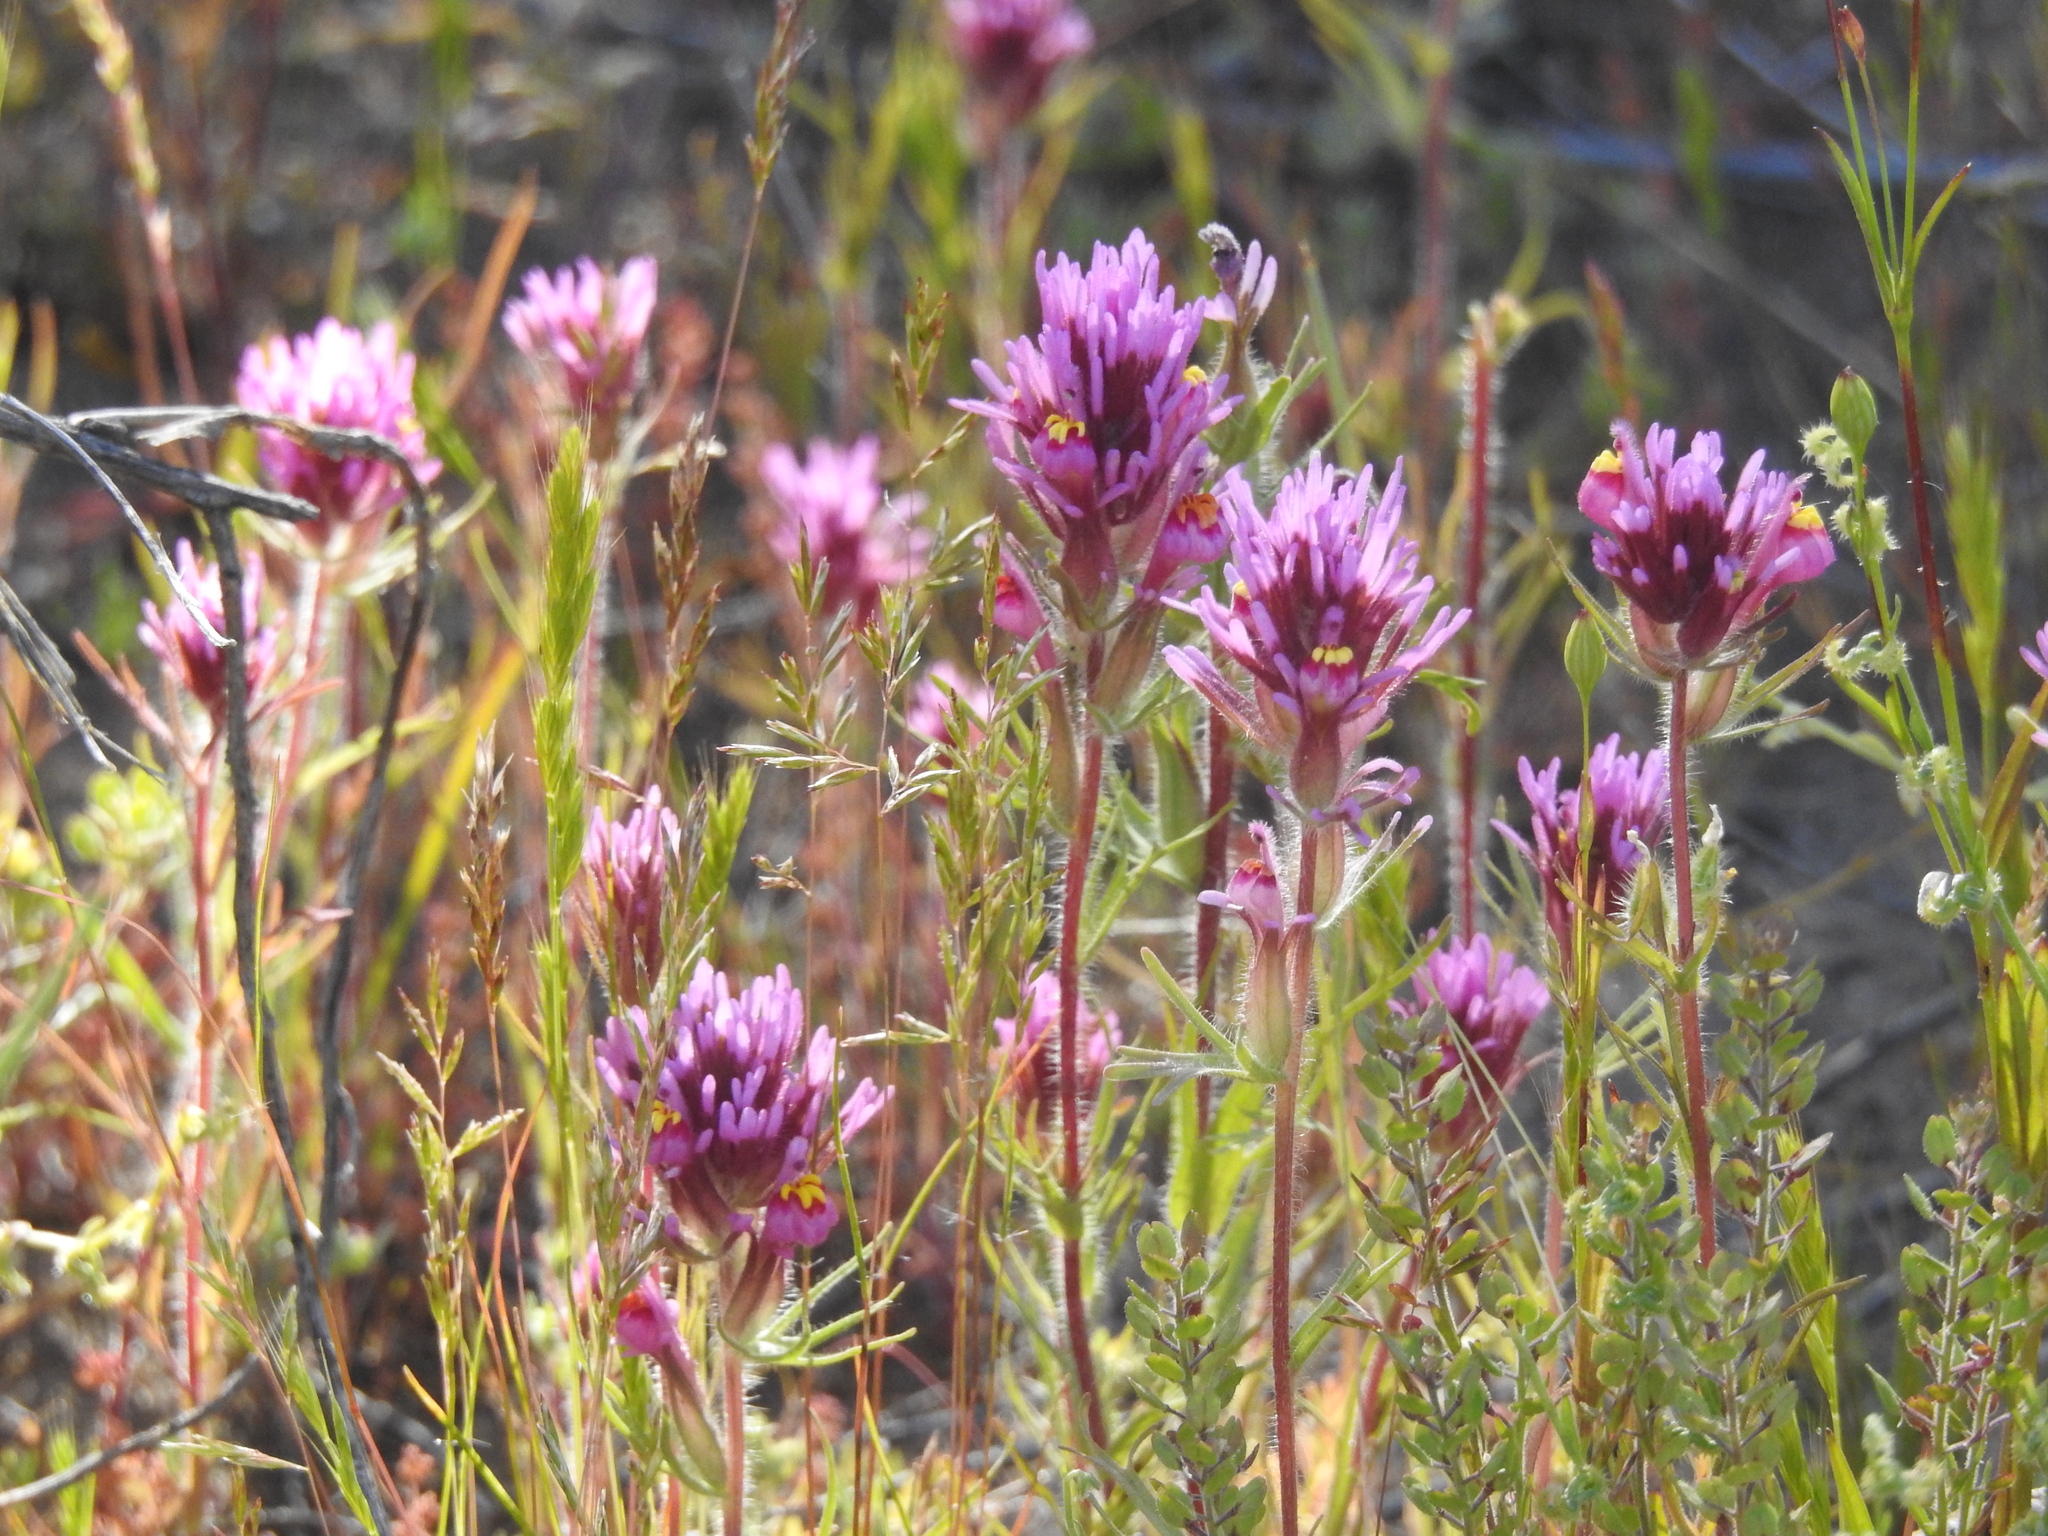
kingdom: Plantae
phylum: Tracheophyta
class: Magnoliopsida
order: Lamiales
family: Orobanchaceae
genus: Castilleja
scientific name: Castilleja exserta
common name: Purple owl-clover
